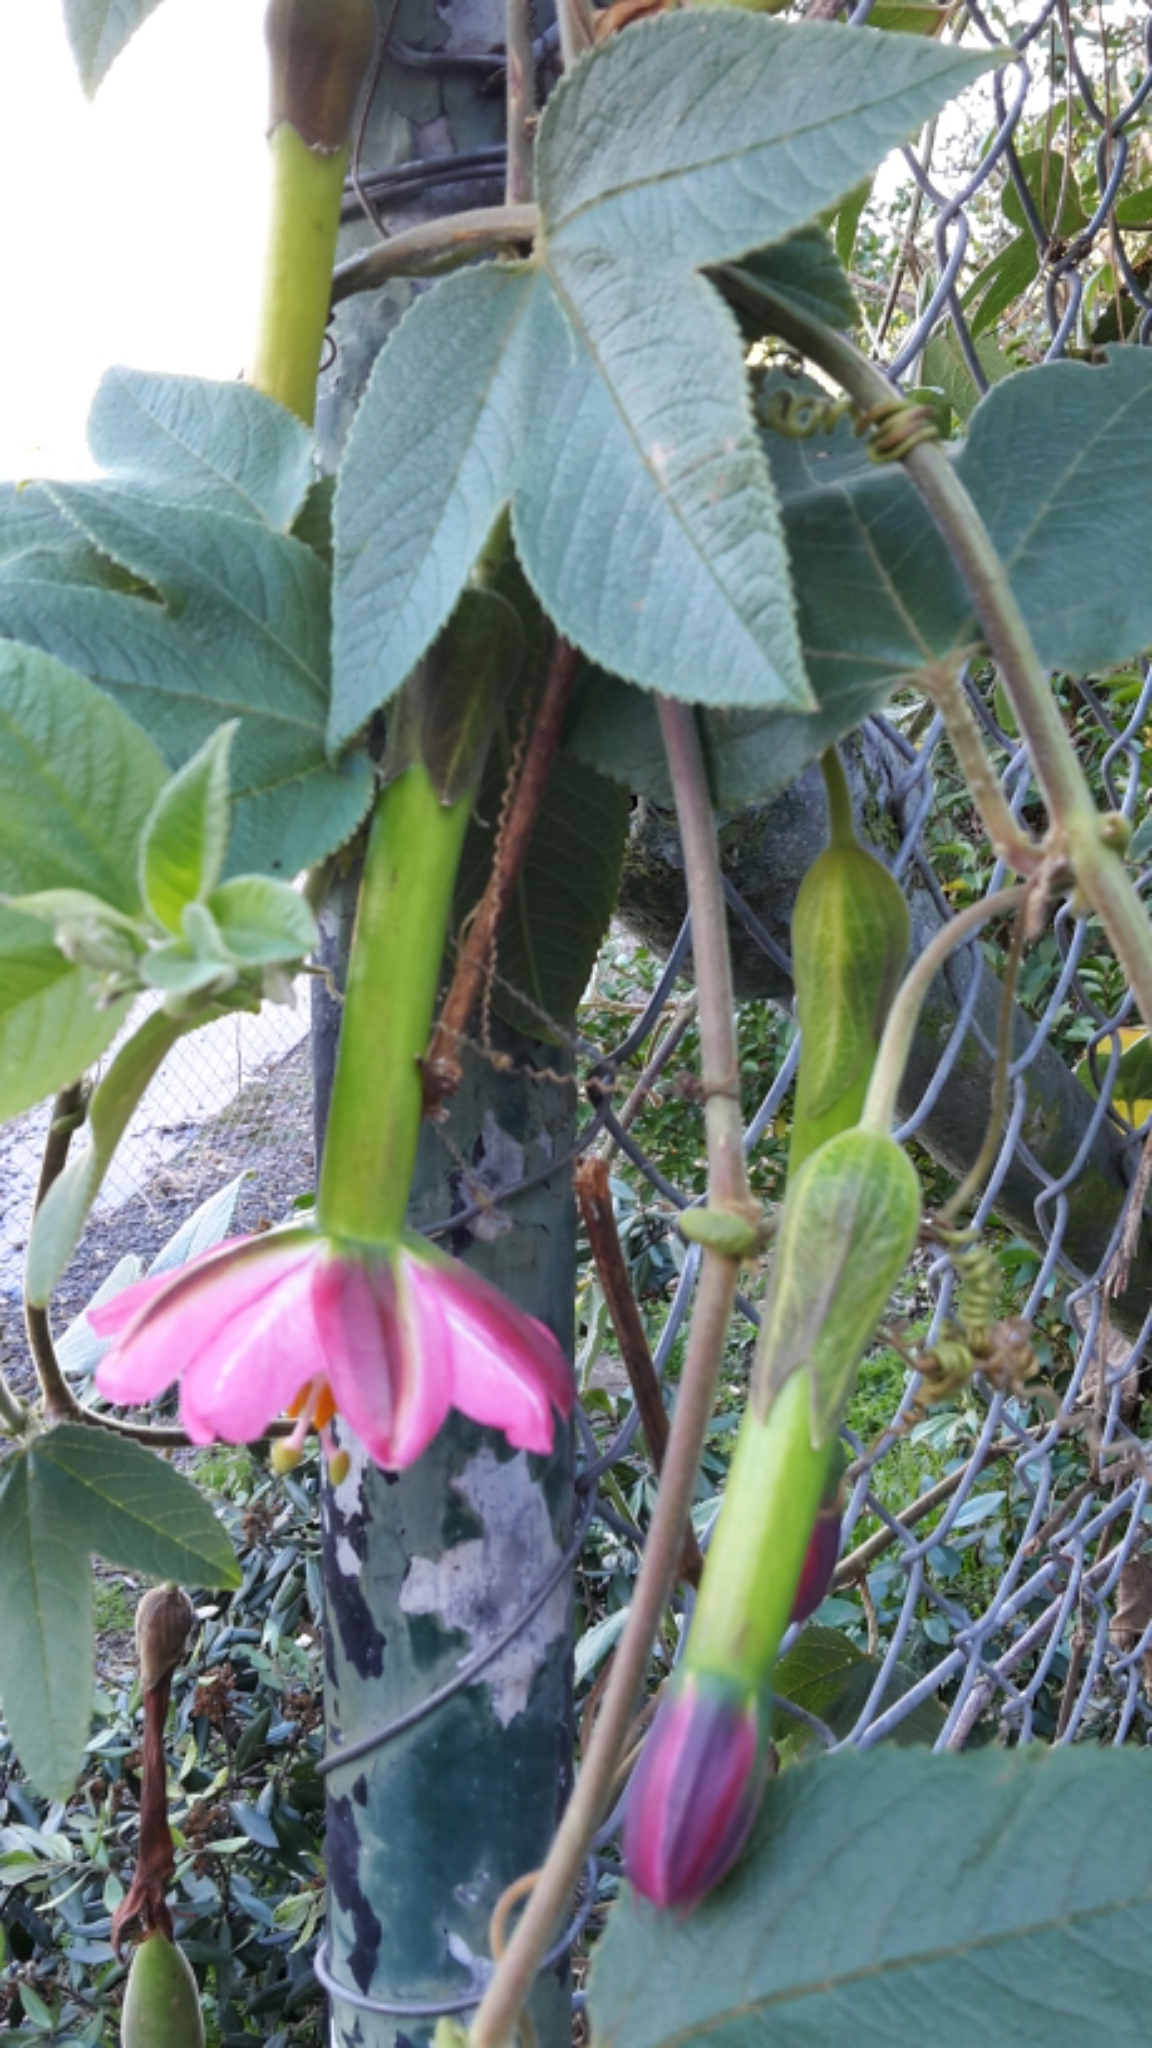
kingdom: Plantae
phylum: Tracheophyta
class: Magnoliopsida
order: Malpighiales
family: Passifloraceae
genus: Passiflora
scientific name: Passiflora tripartita
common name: Banana poka
